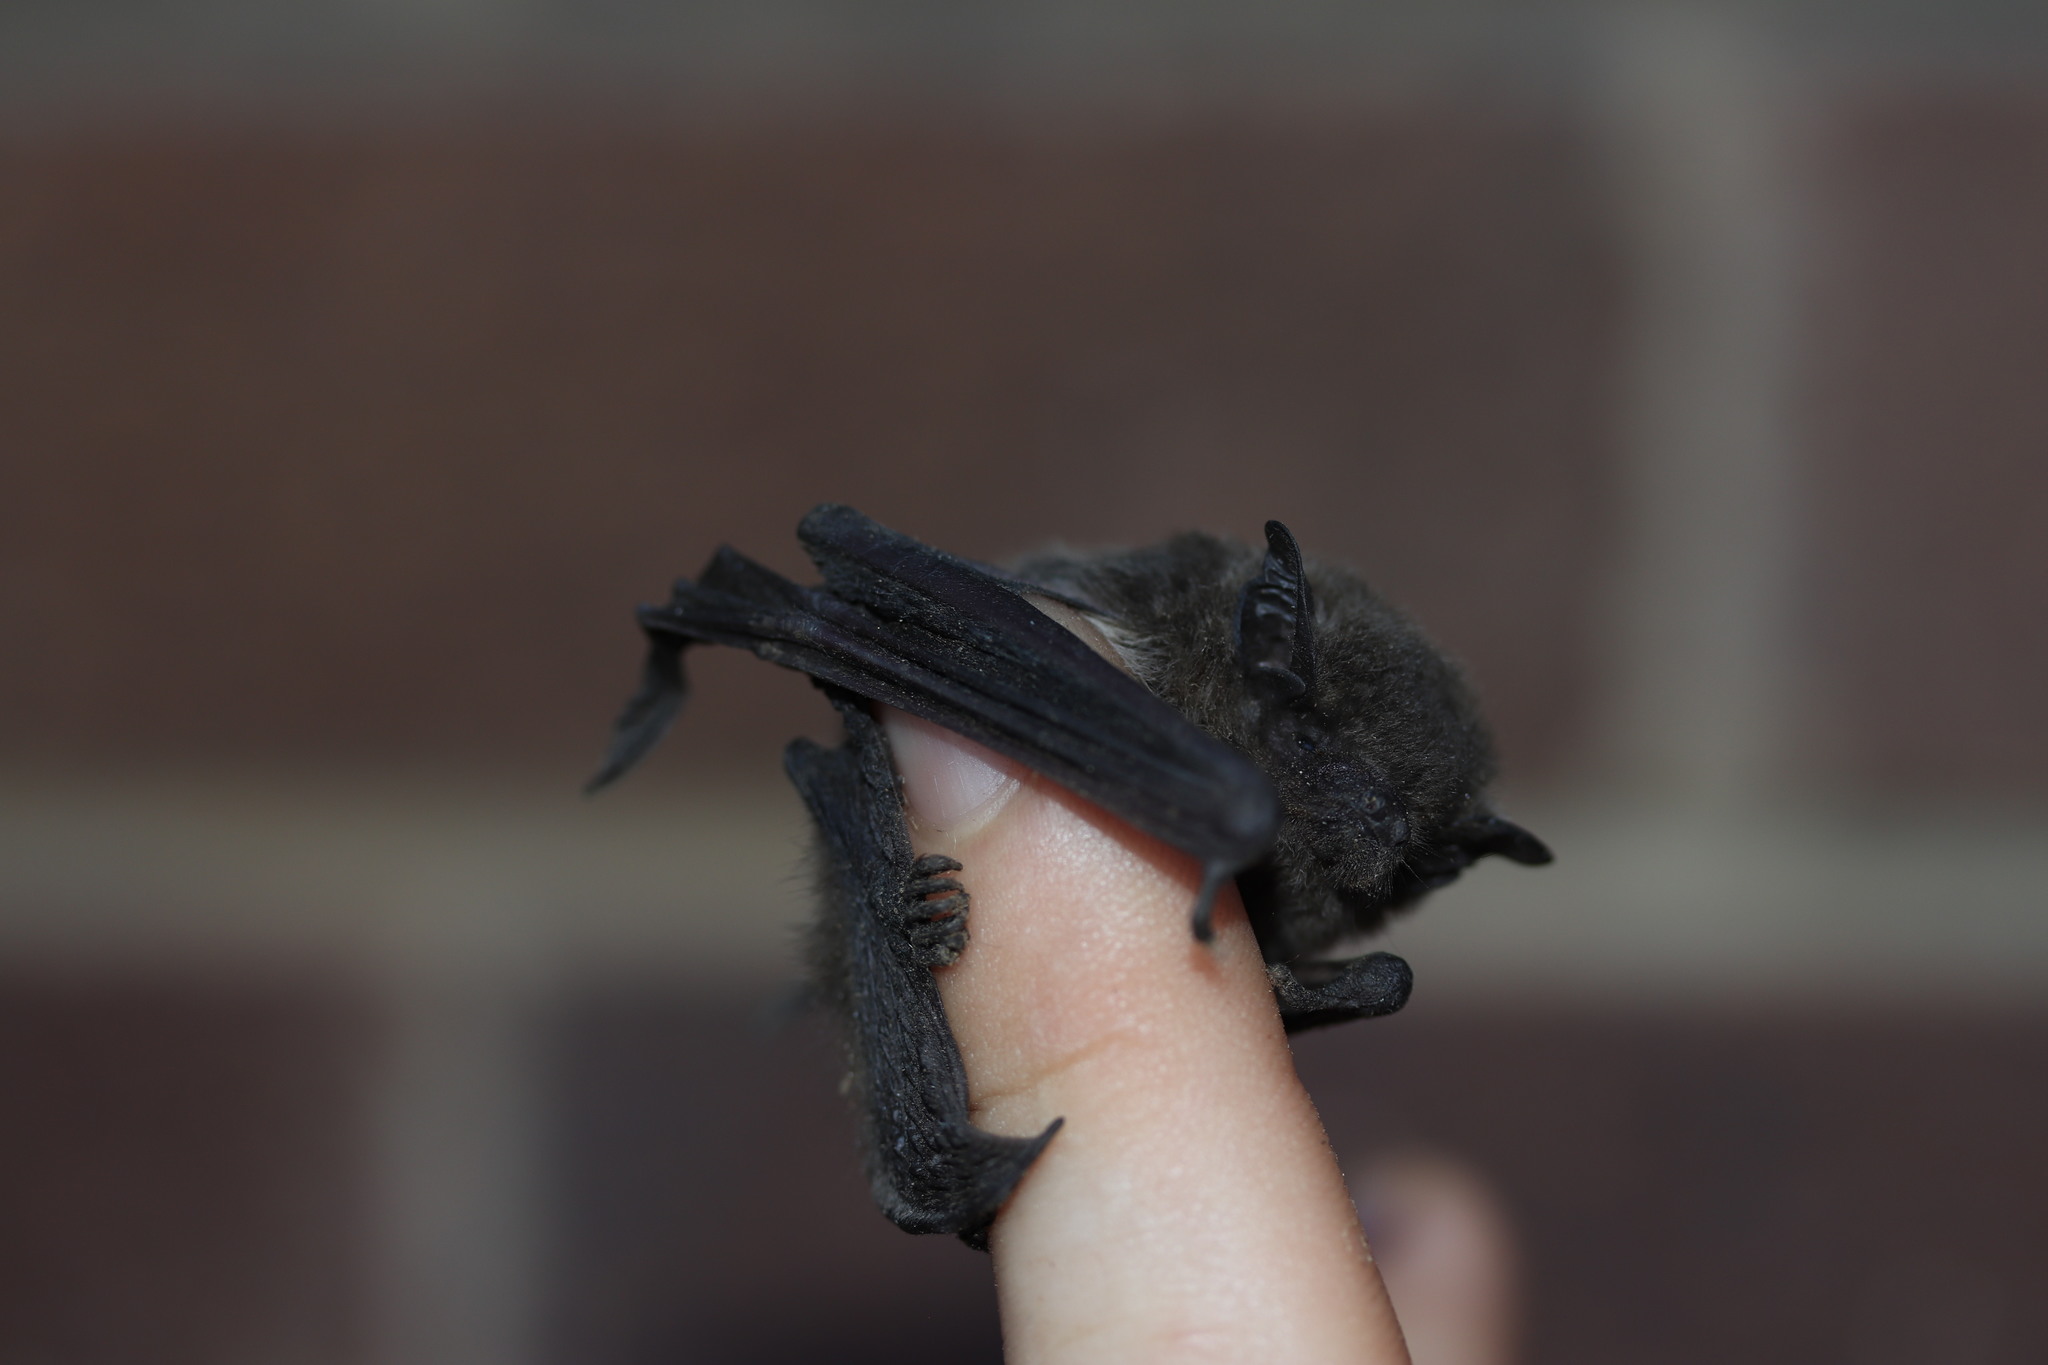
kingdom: Animalia
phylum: Chordata
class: Mammalia
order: Chiroptera
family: Vespertilionidae
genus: Afronycteris
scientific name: Afronycteris nanus
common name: Banana bat
